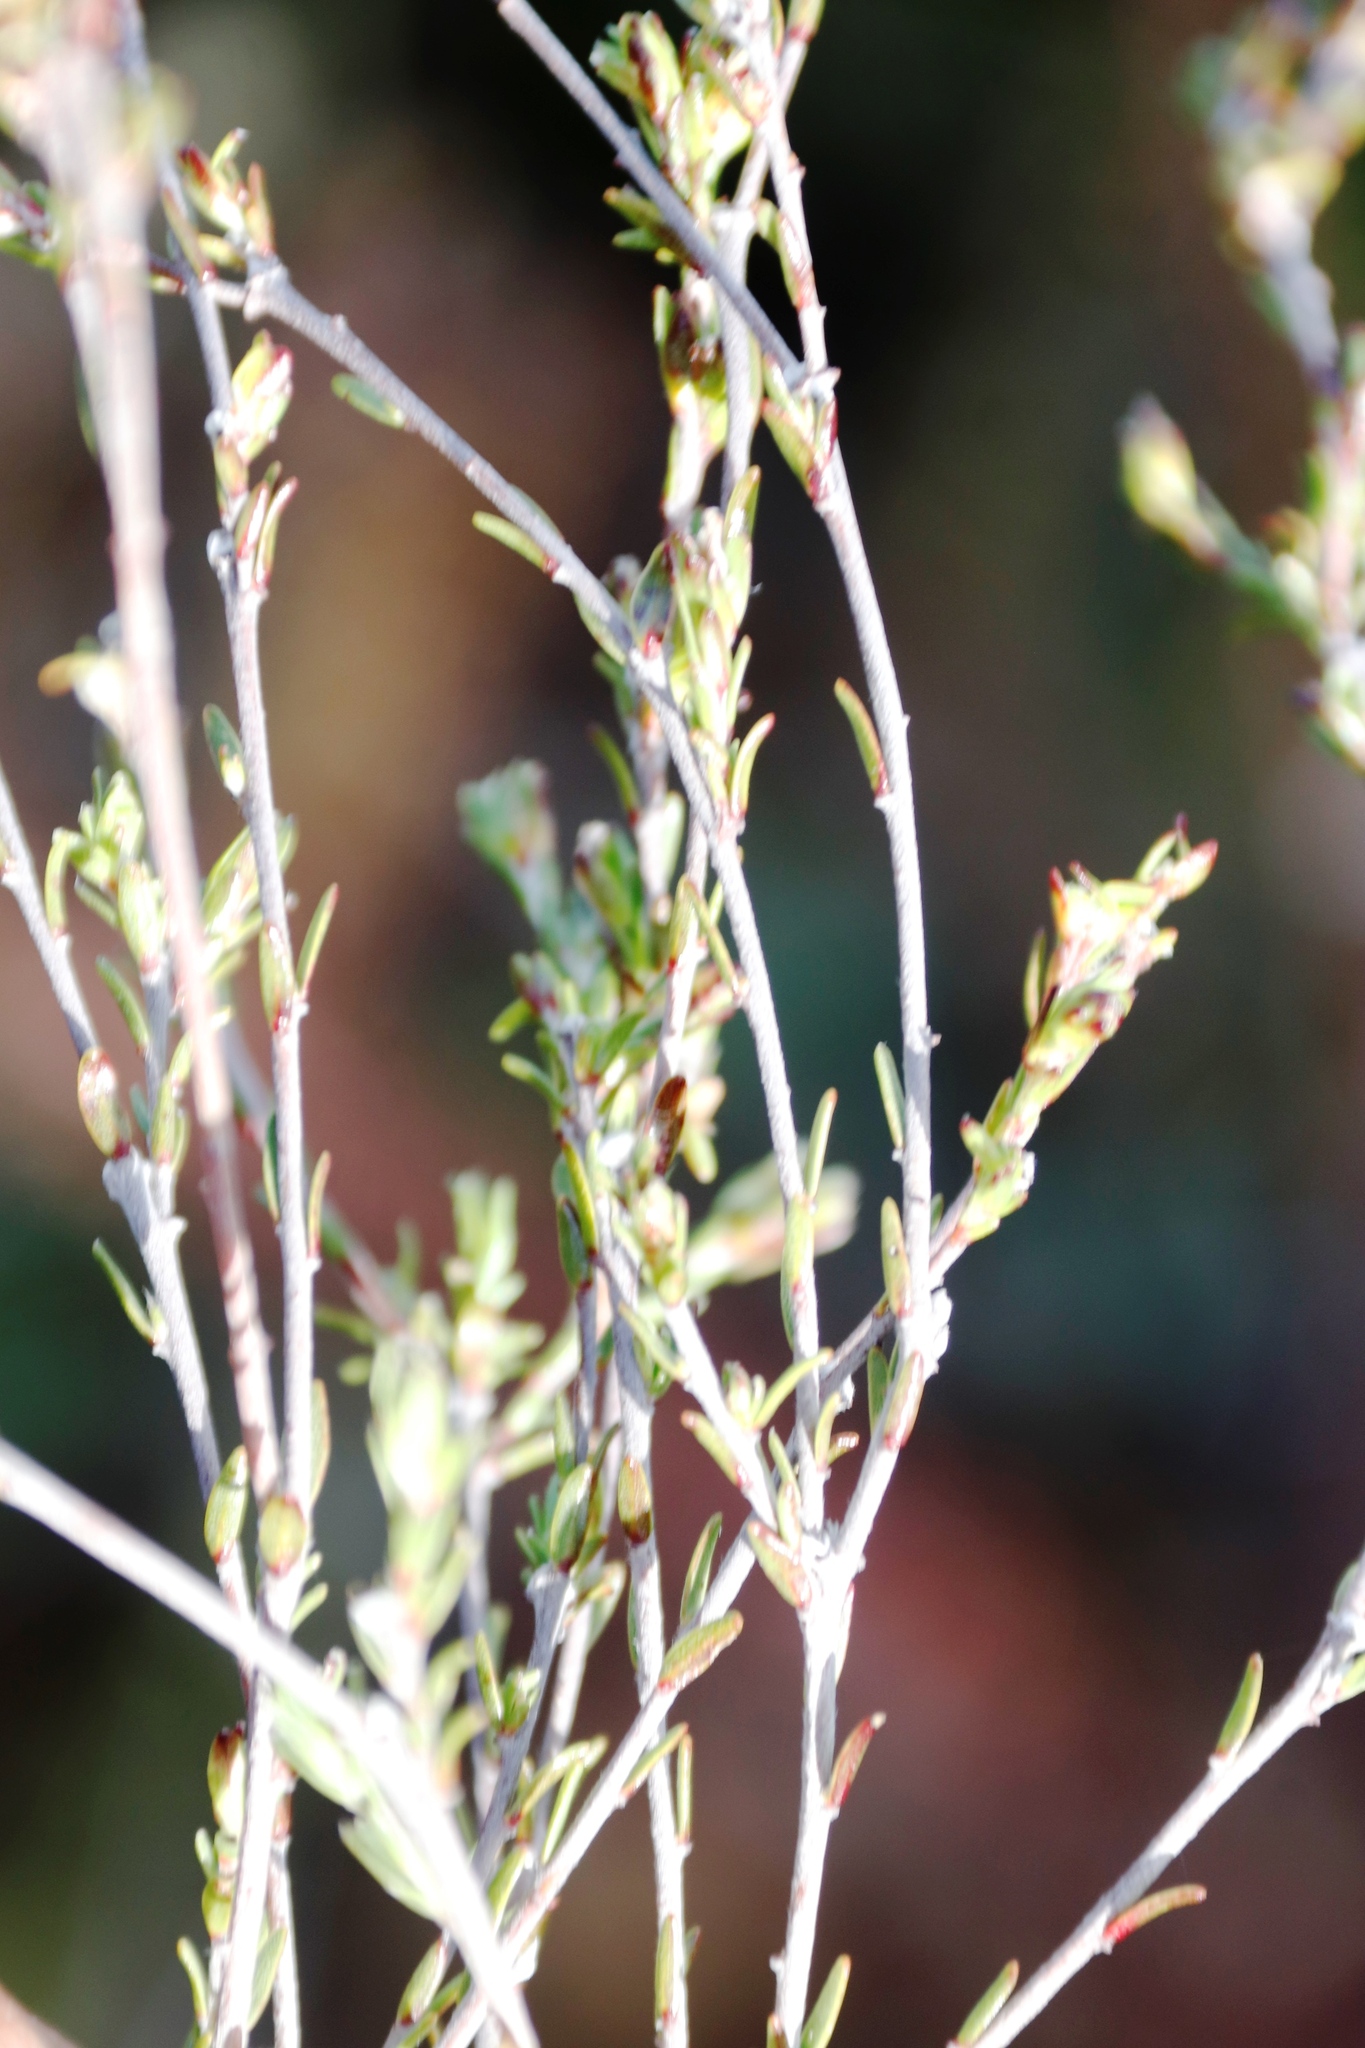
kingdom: Plantae
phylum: Tracheophyta
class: Magnoliopsida
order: Malvales
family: Thymelaeaceae
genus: Gnidia
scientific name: Gnidia laxa
